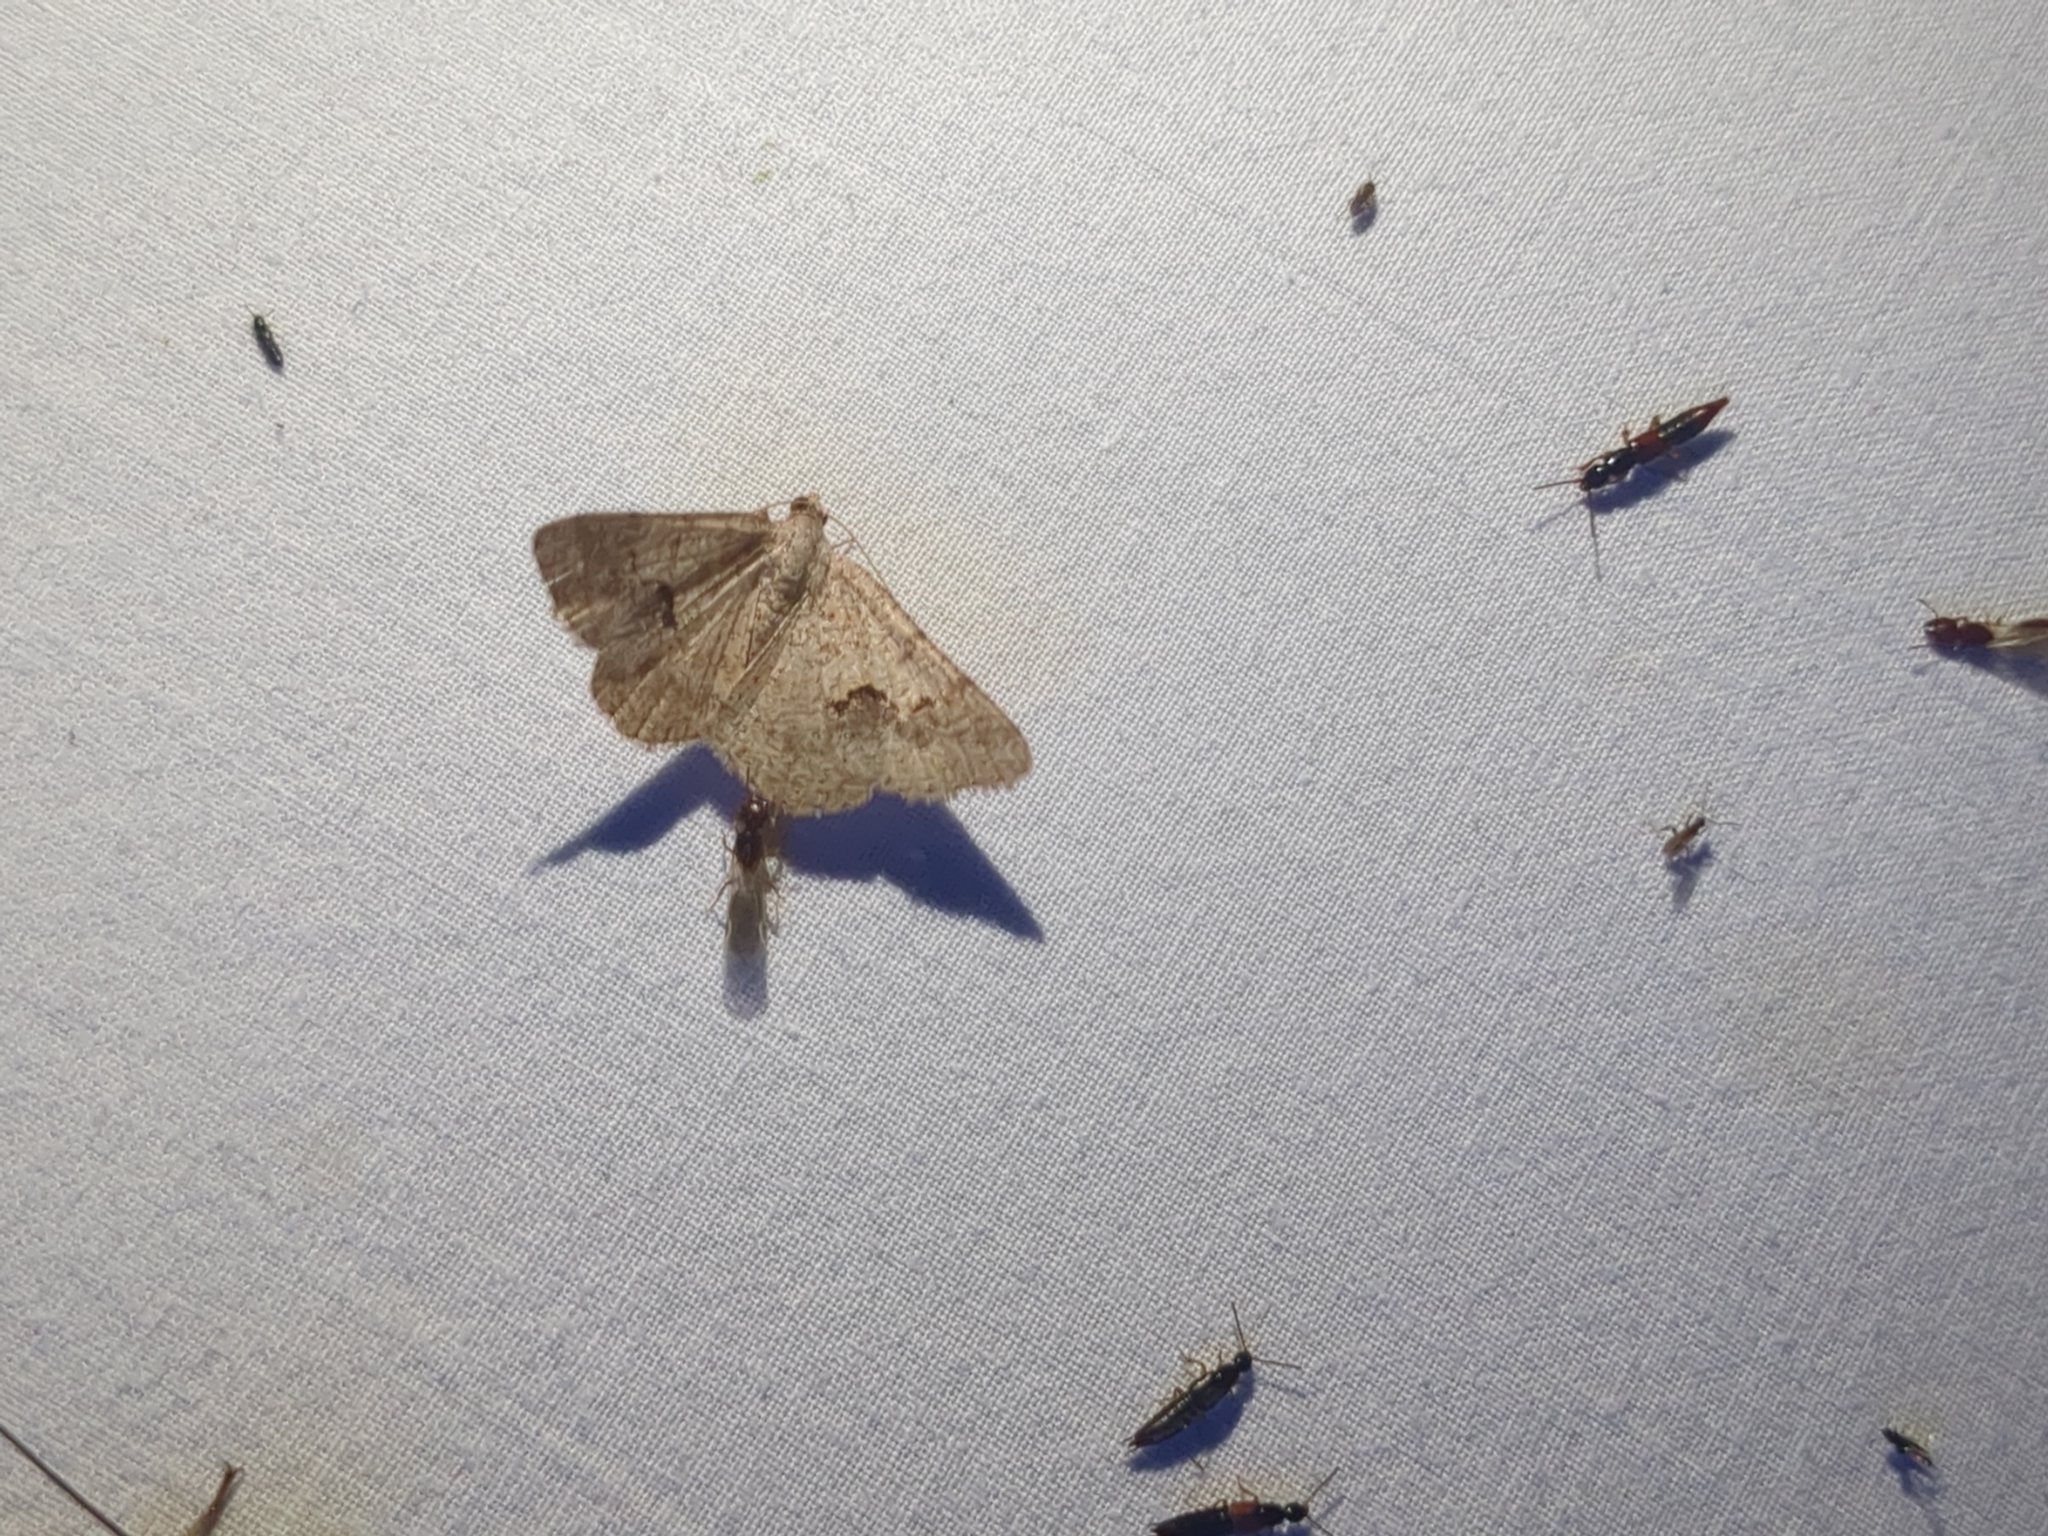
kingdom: Animalia
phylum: Arthropoda
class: Insecta
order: Lepidoptera
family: Geometridae
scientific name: Geometridae
